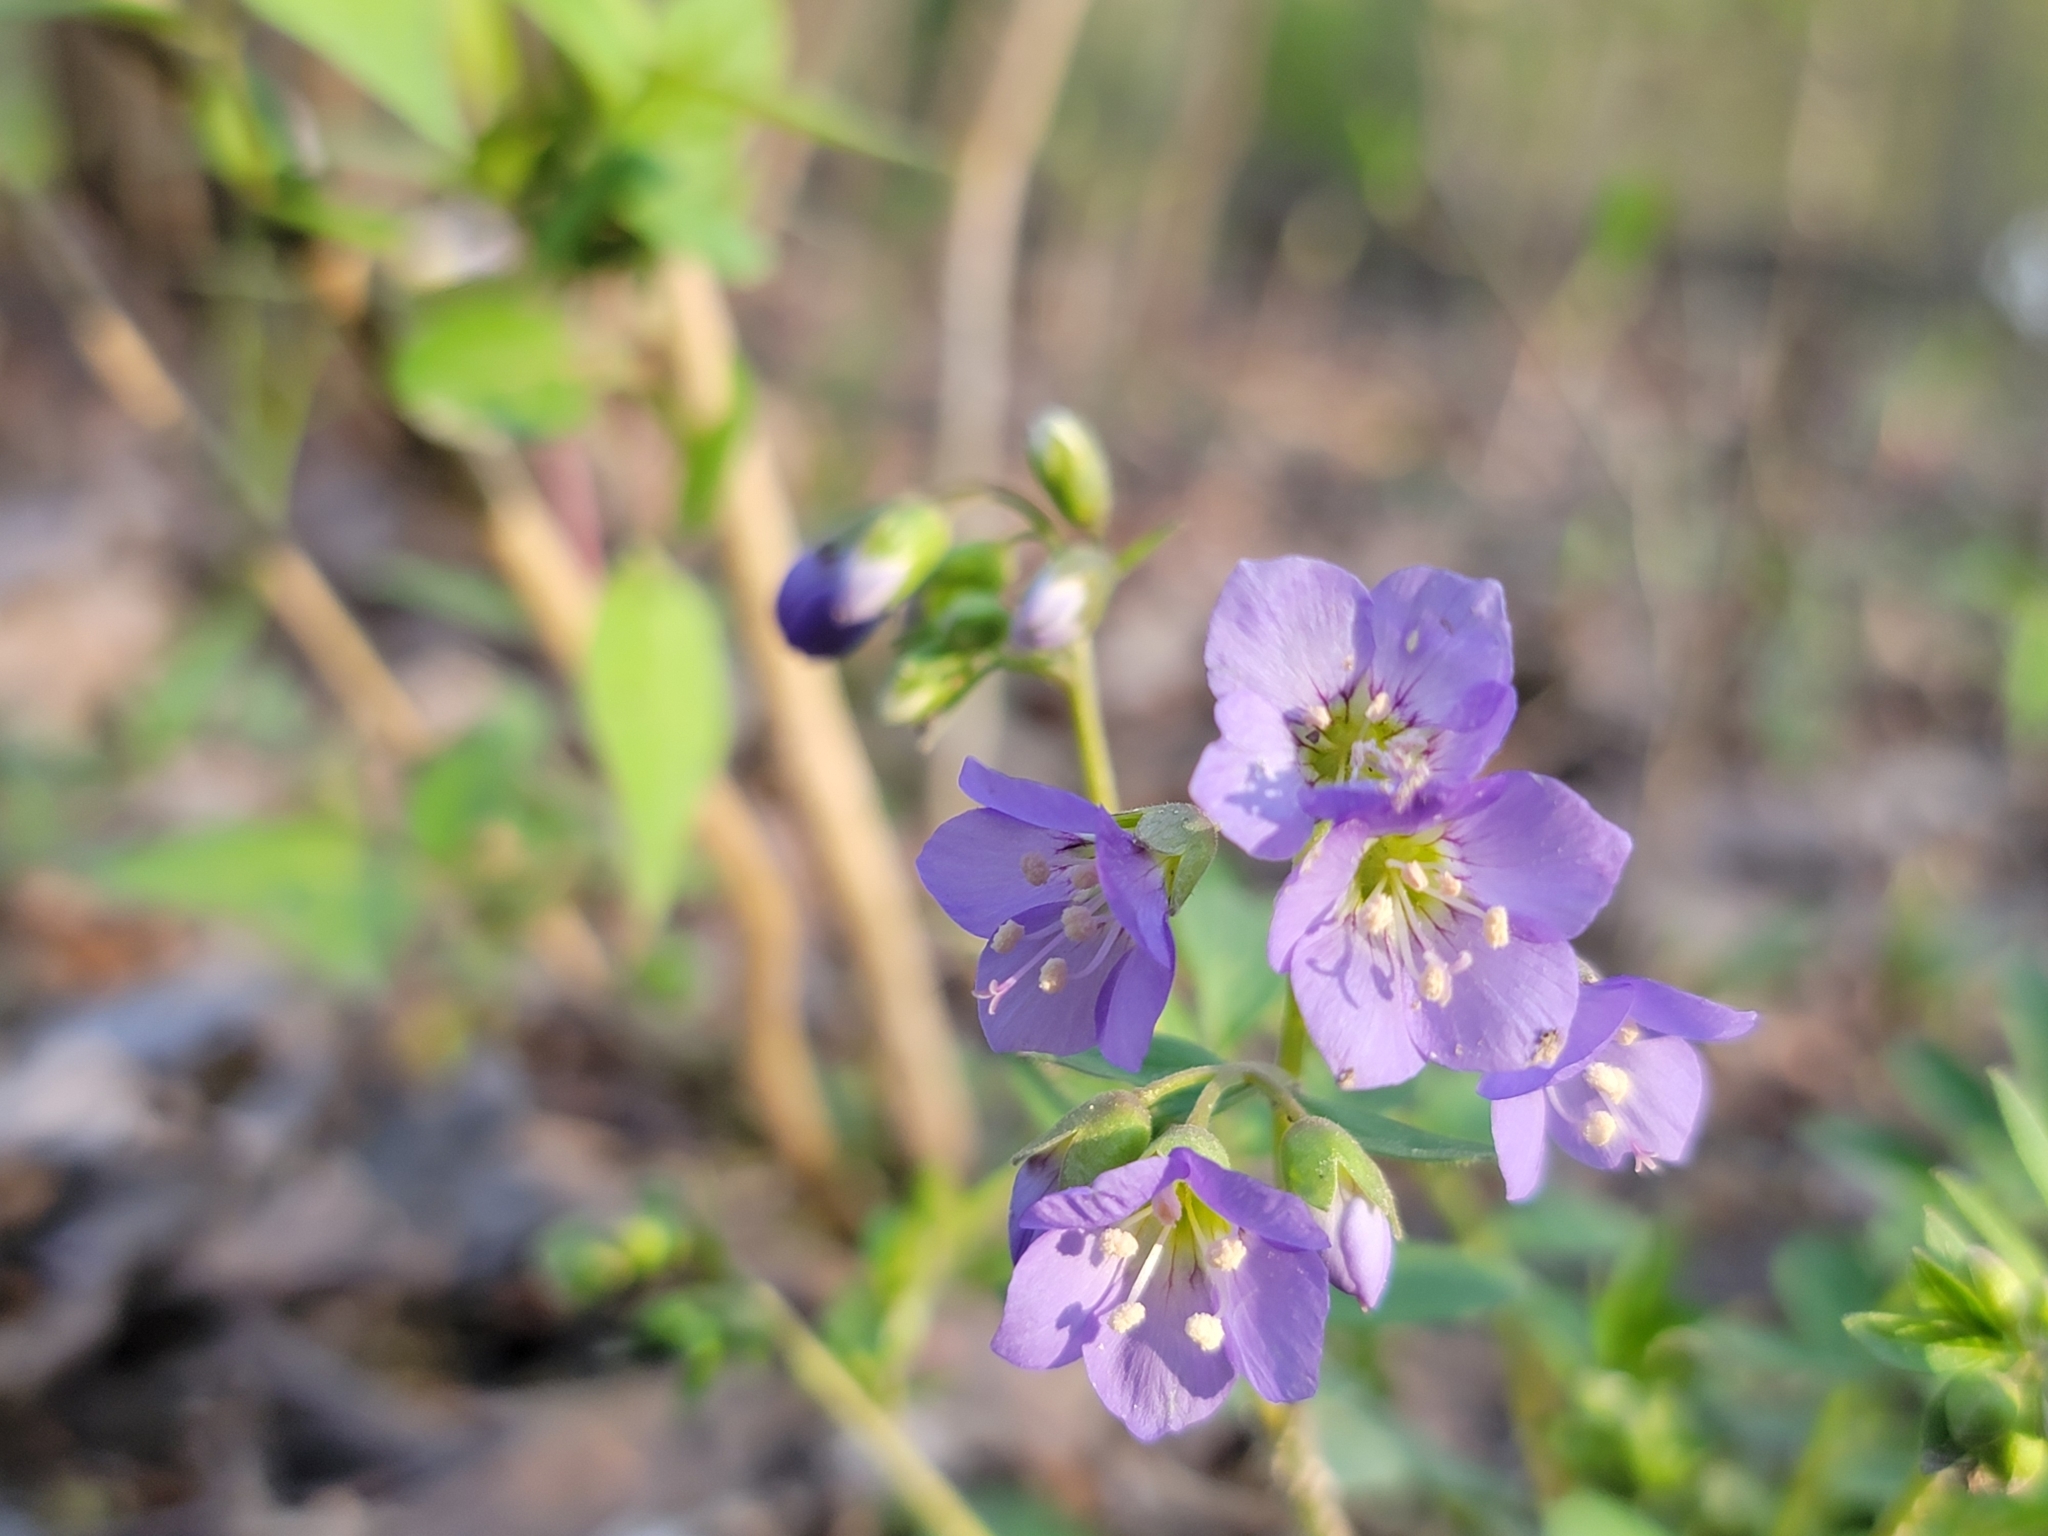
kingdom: Plantae
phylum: Tracheophyta
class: Magnoliopsida
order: Ericales
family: Polemoniaceae
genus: Polemonium
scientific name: Polemonium reptans
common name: Creeping jacob's-ladder
